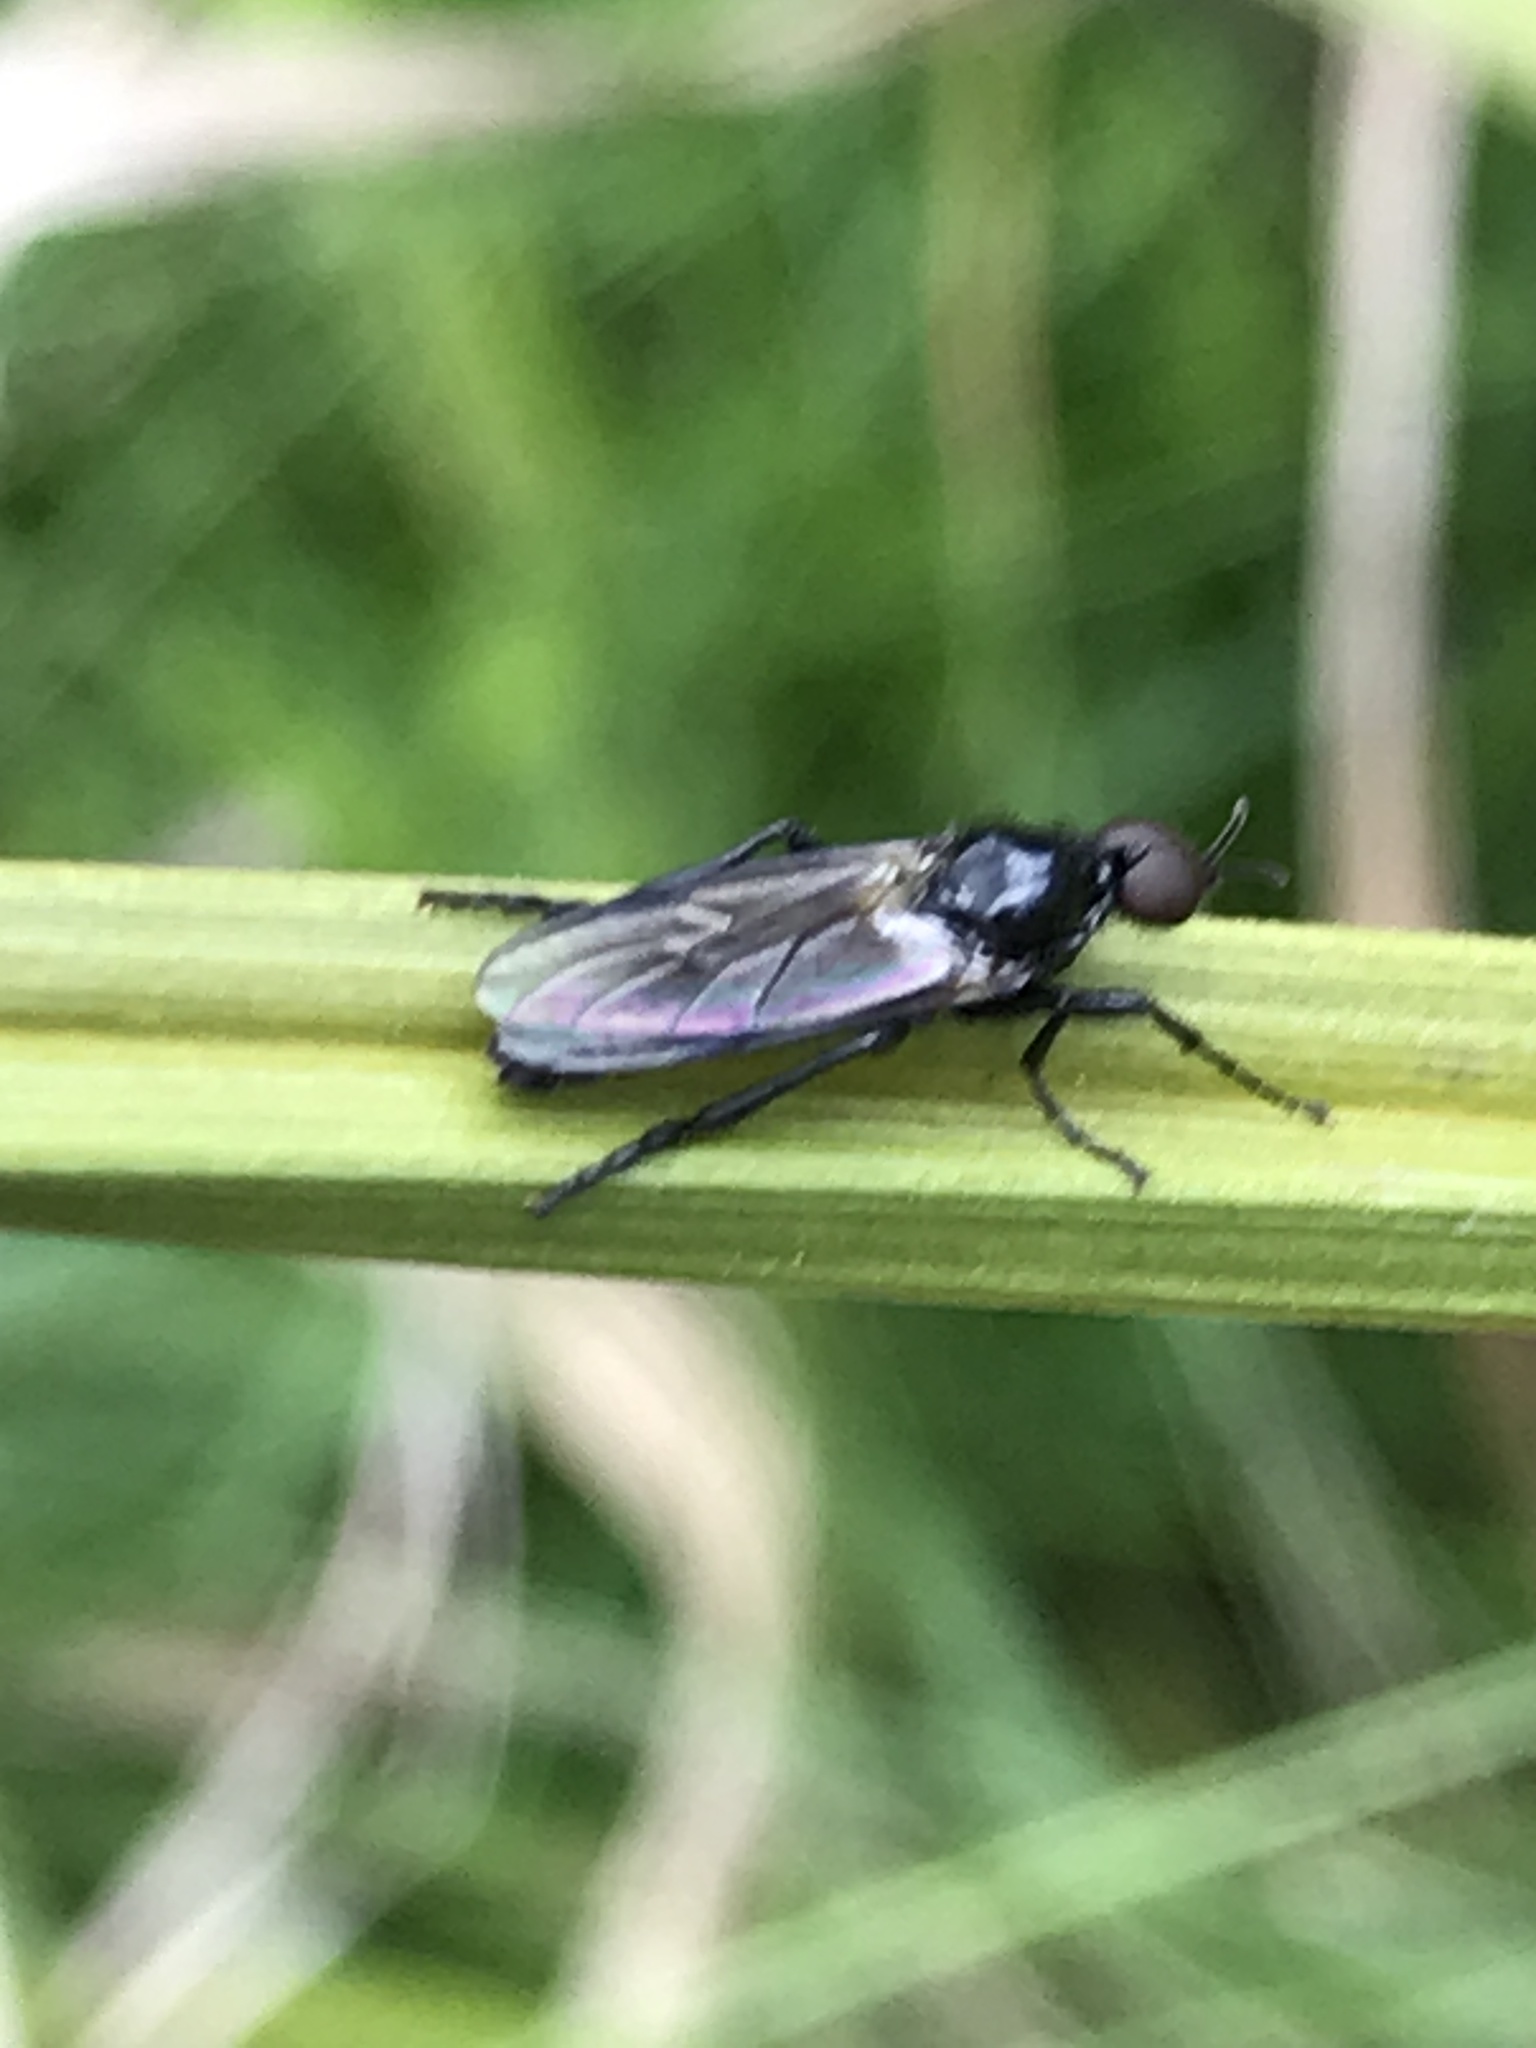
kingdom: Animalia
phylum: Arthropoda
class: Insecta
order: Diptera
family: Bibionidae
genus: Dilophus
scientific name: Dilophus nigrostigma
